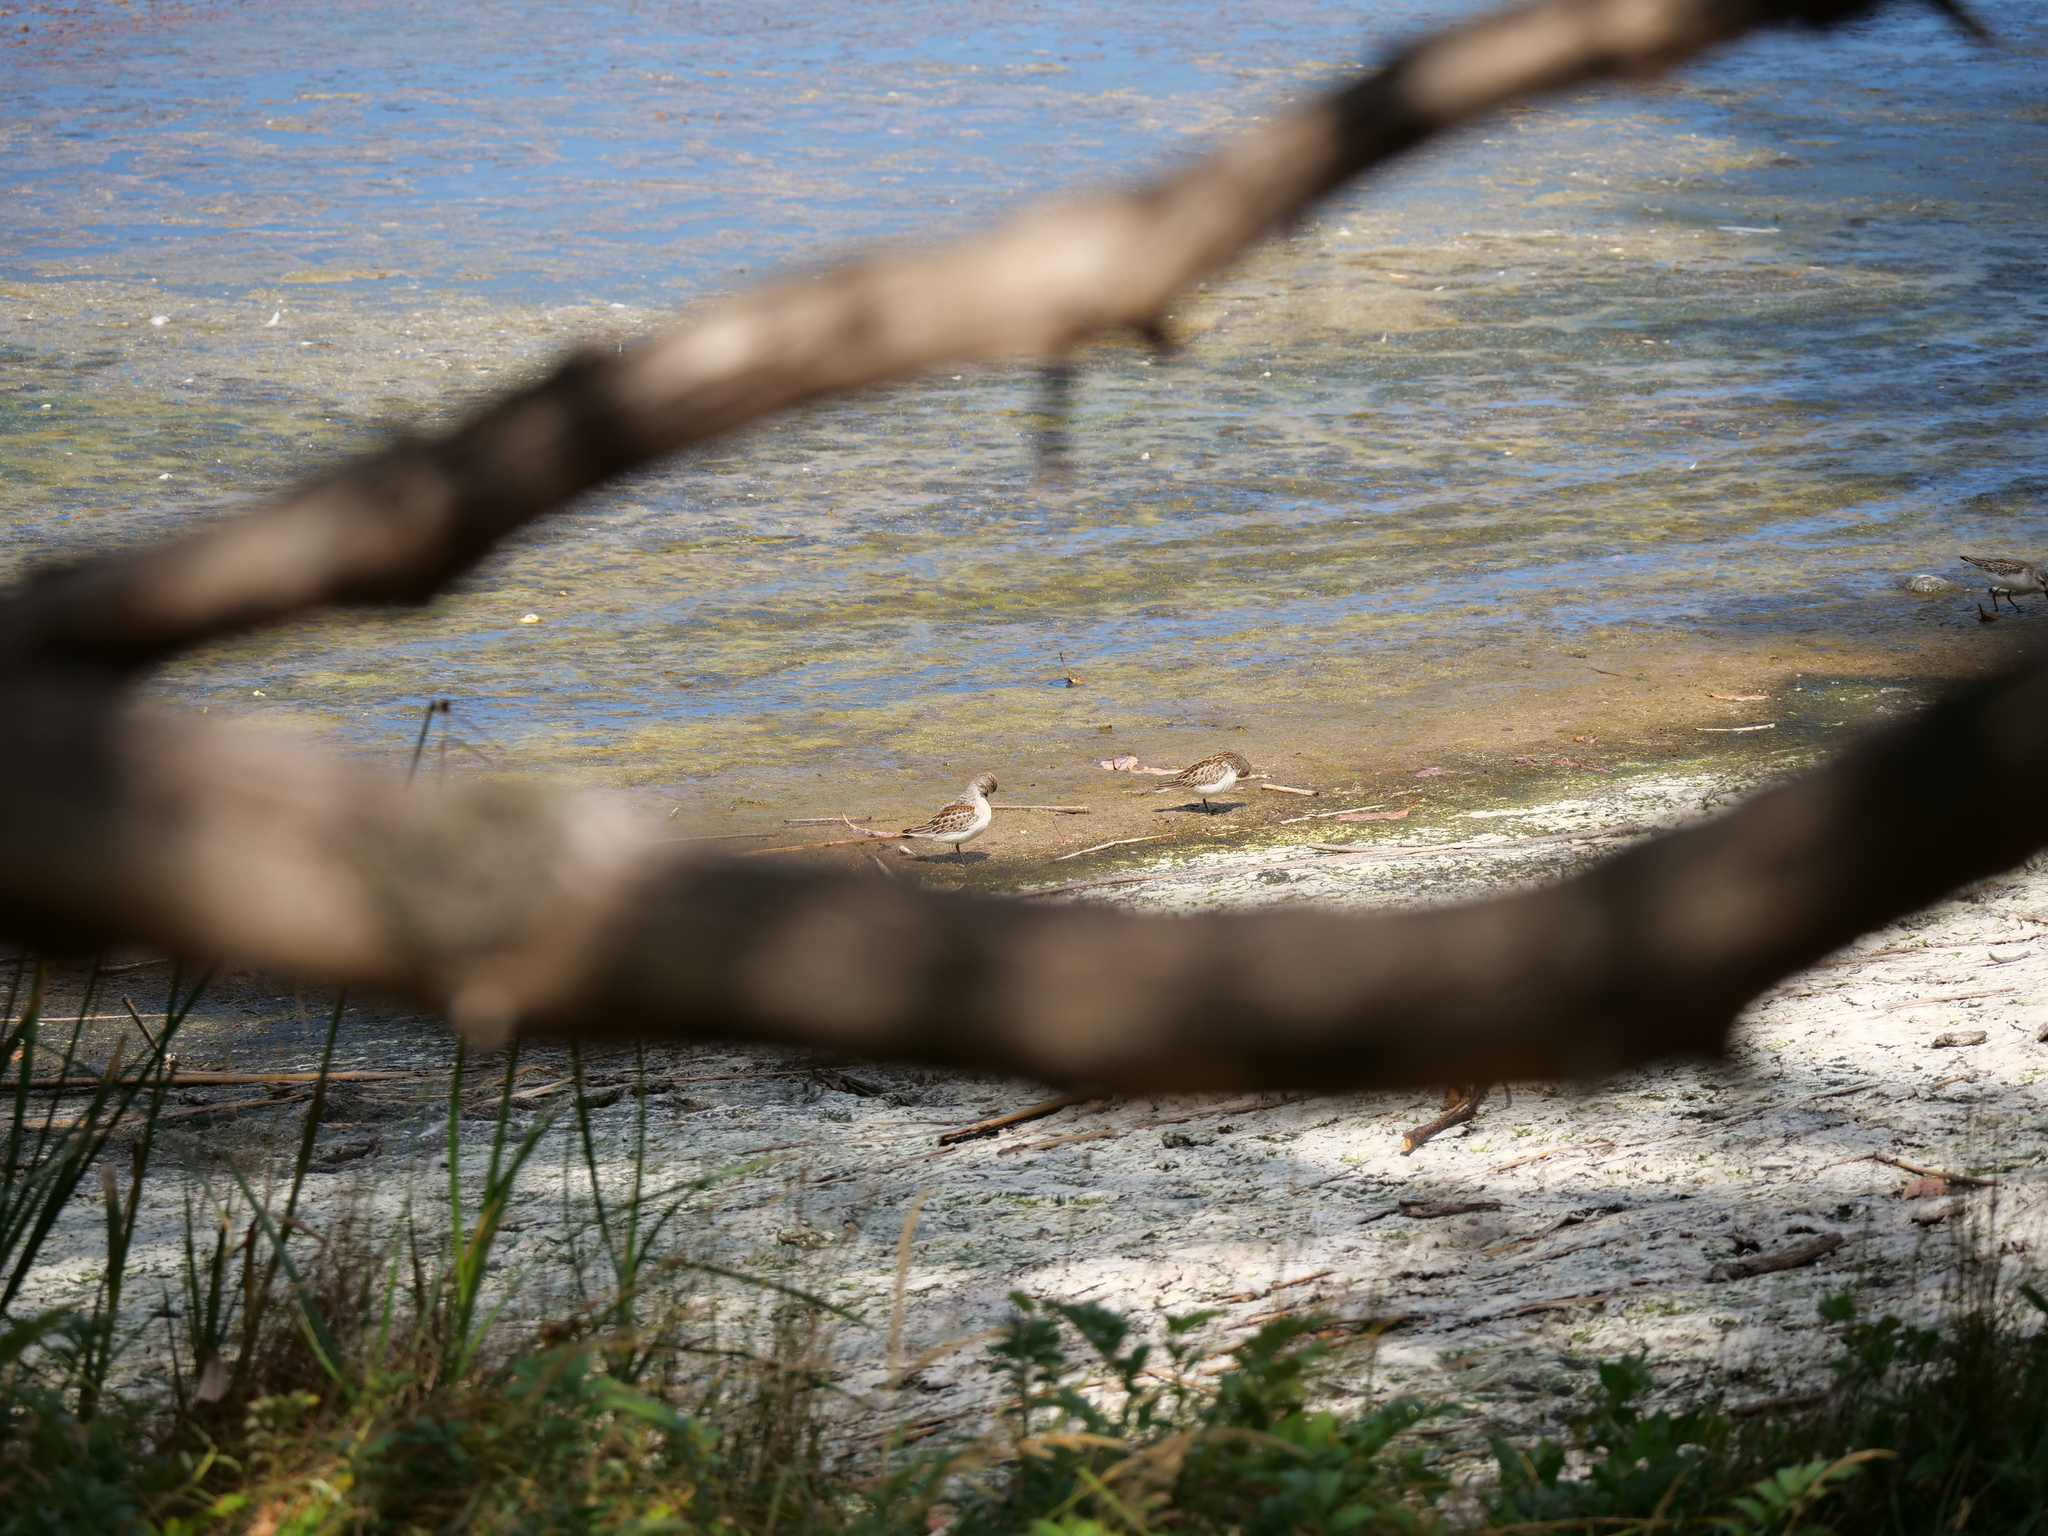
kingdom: Animalia
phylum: Chordata
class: Aves
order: Charadriiformes
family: Scolopacidae
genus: Calidris
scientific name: Calidris mauri
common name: Western sandpiper
